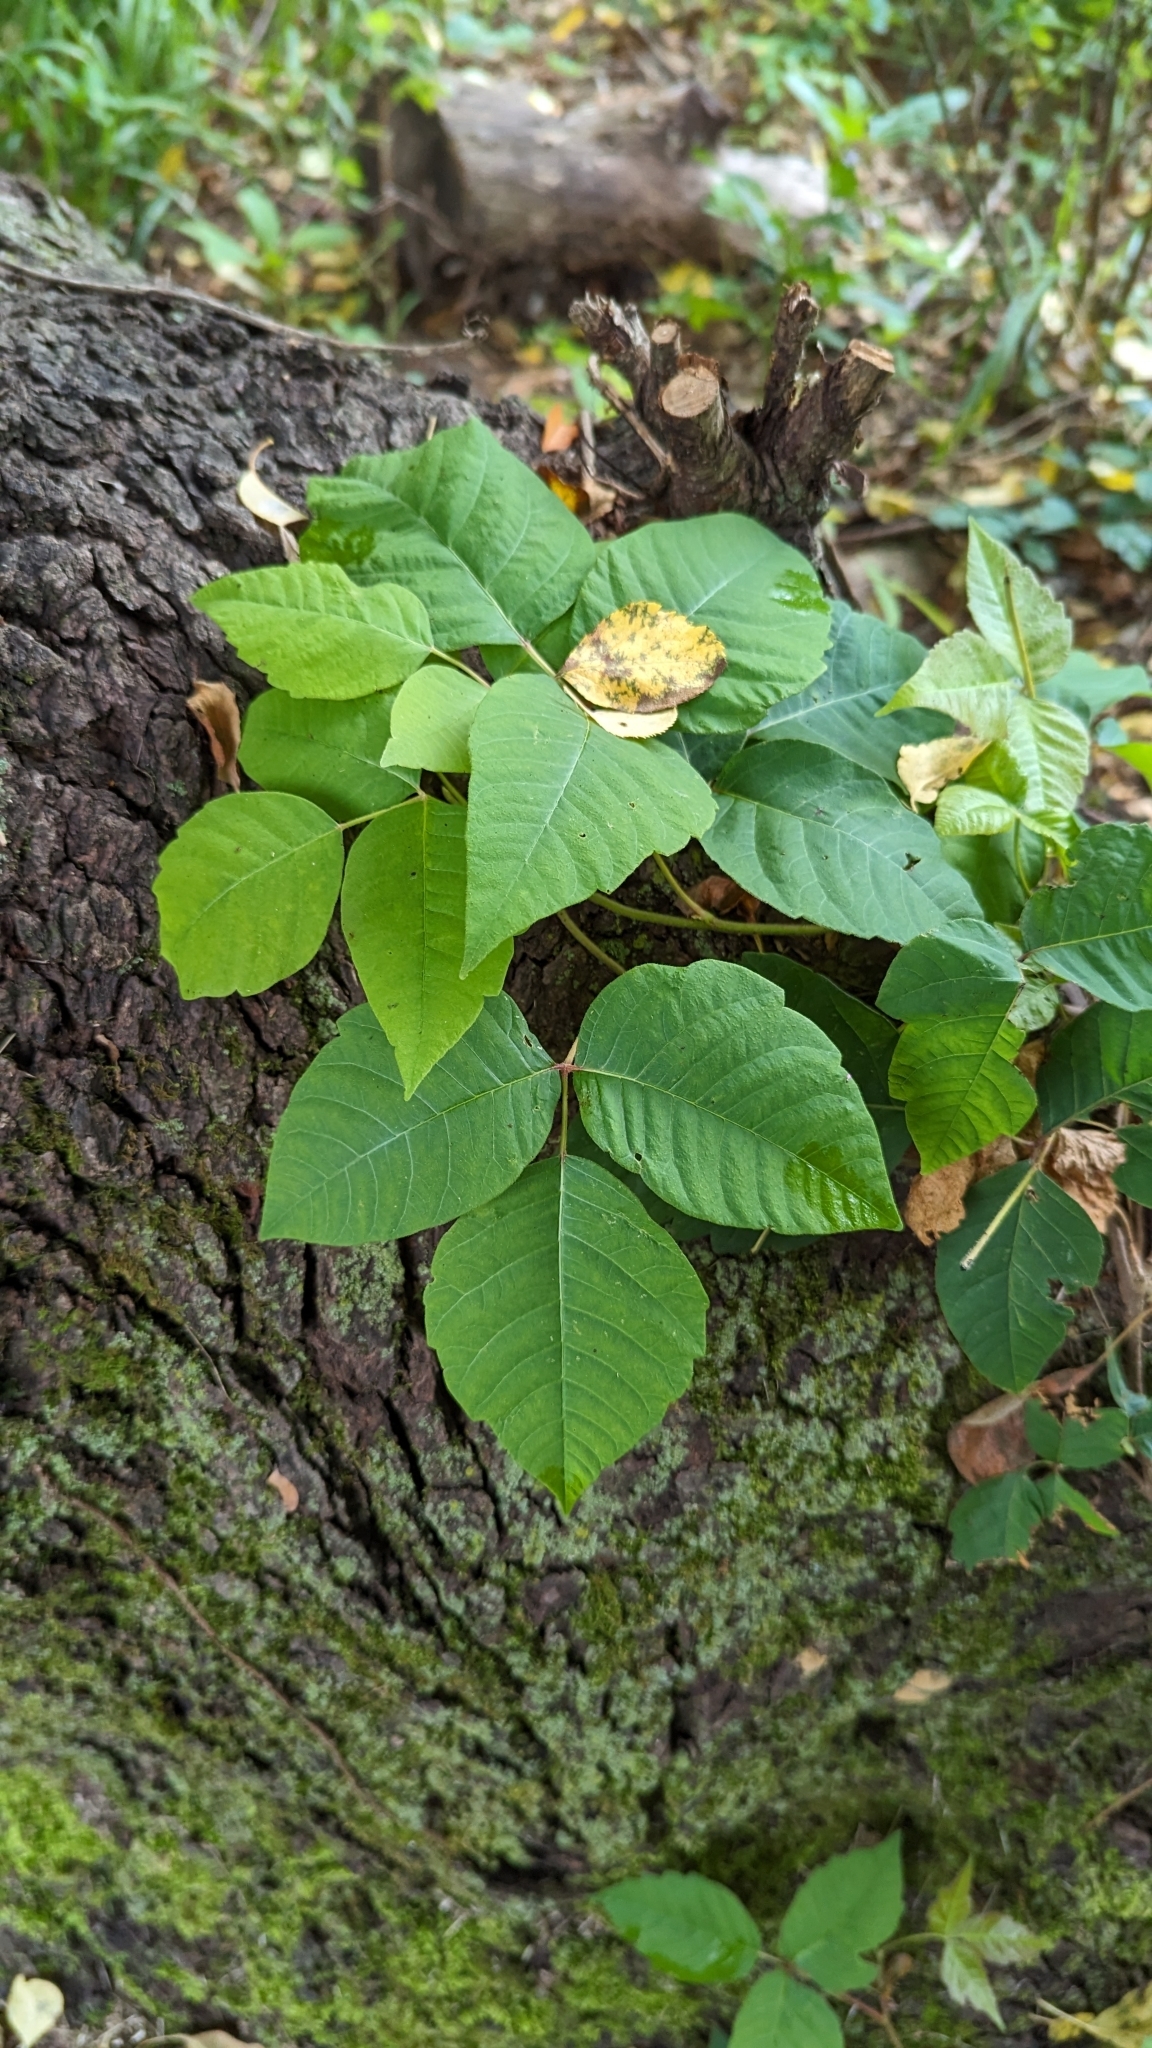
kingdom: Plantae
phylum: Tracheophyta
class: Magnoliopsida
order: Sapindales
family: Anacardiaceae
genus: Toxicodendron
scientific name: Toxicodendron radicans
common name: Poison ivy
